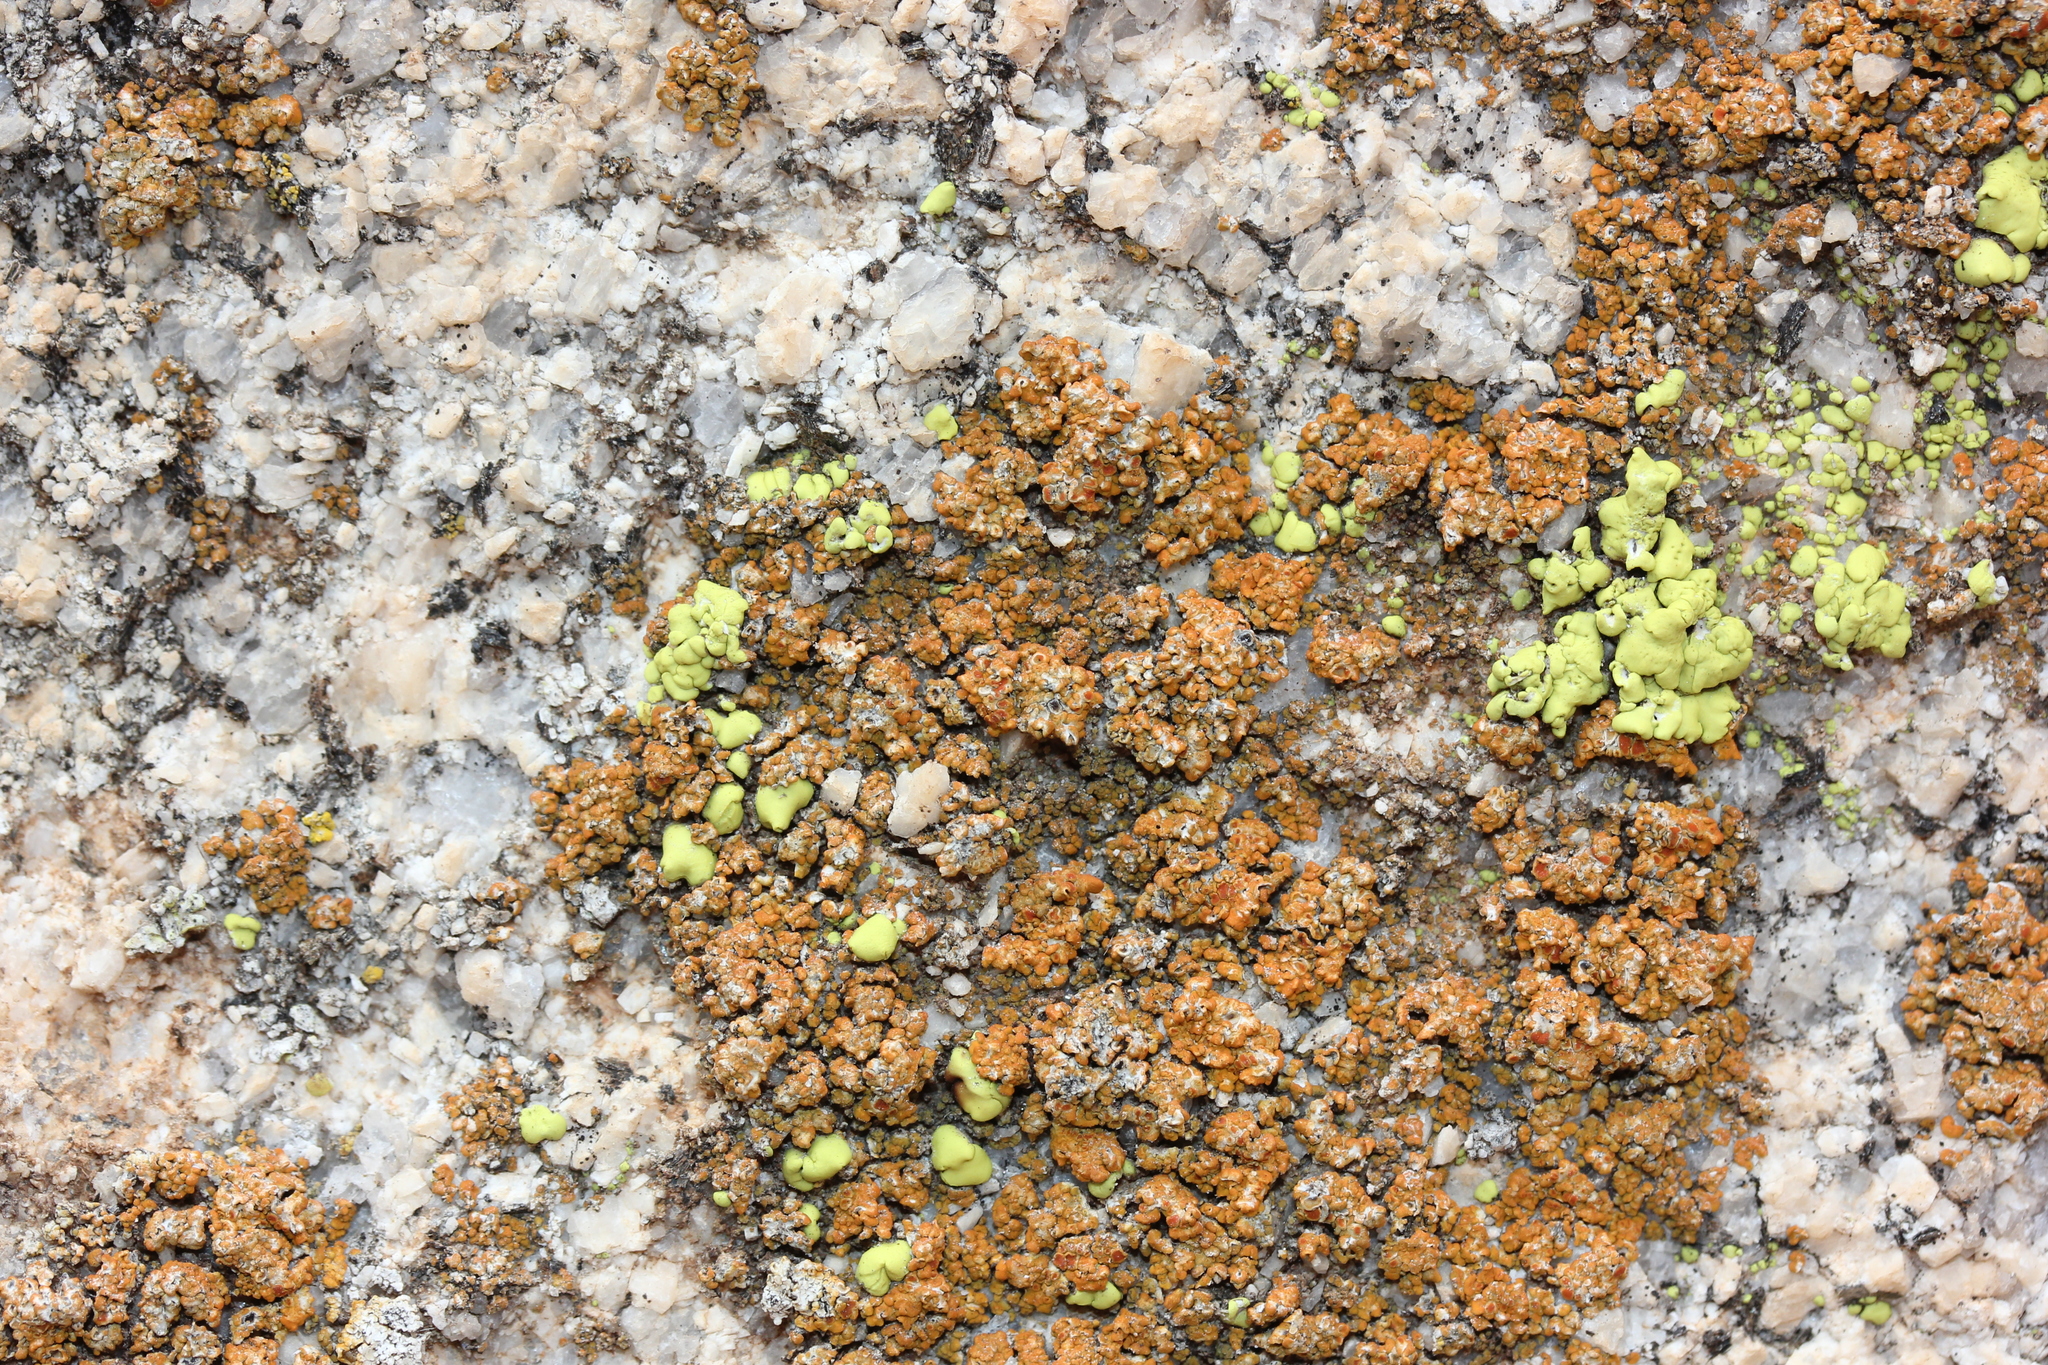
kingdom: Fungi
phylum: Ascomycota
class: Lecanoromycetes
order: Teloschistales
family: Teloschistaceae
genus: Squamulea
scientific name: Squamulea subsoluta
